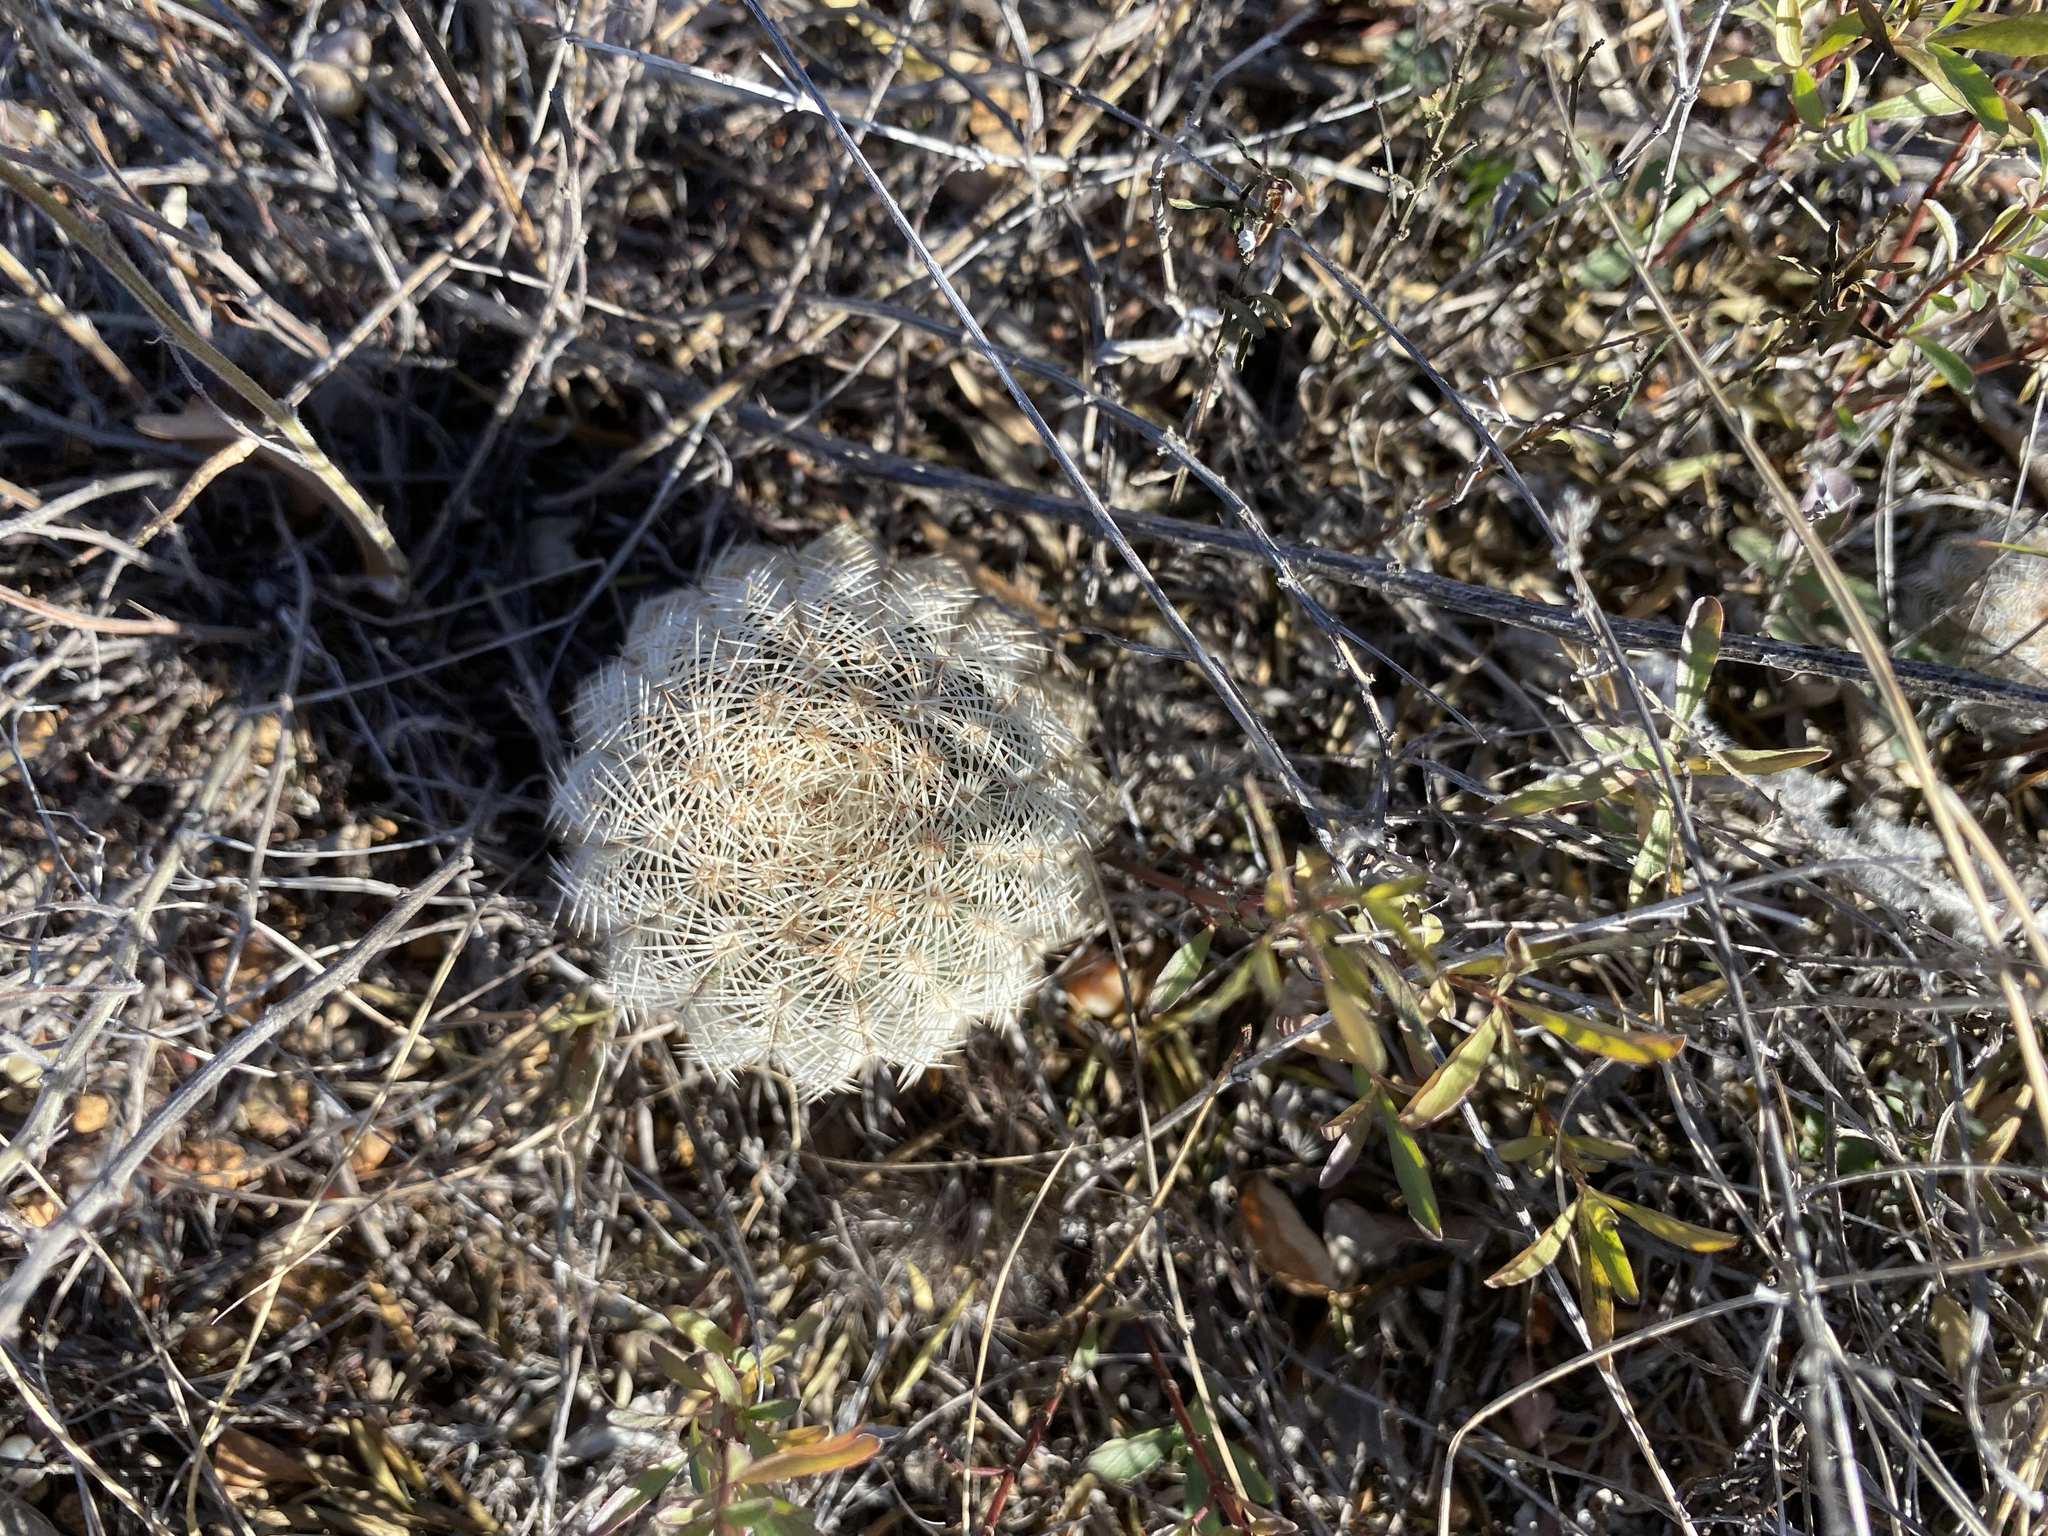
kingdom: Plantae
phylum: Tracheophyta
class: Magnoliopsida
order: Caryophyllales
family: Cactaceae
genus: Echinocereus
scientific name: Echinocereus reichenbachii
